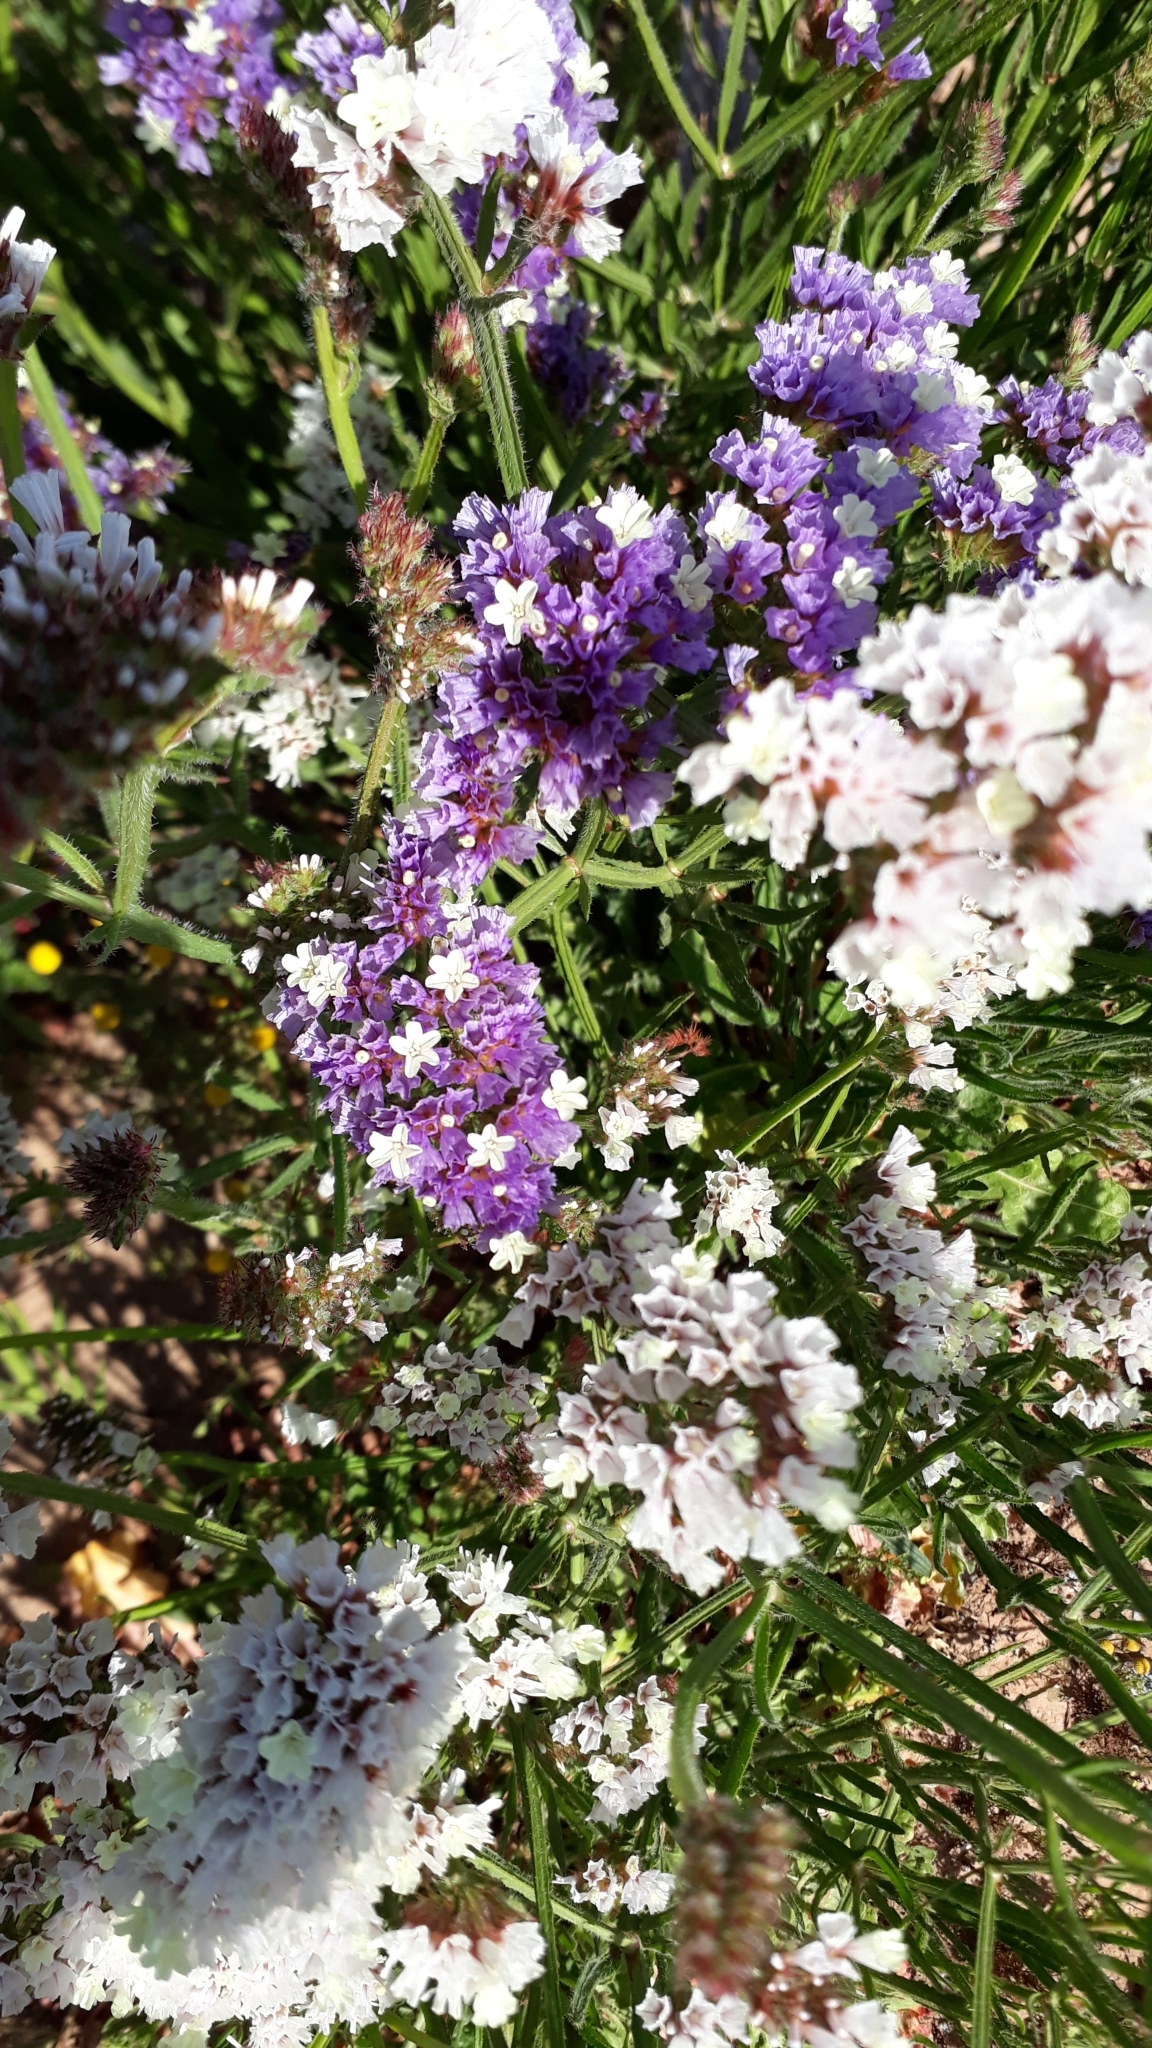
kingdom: Plantae
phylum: Tracheophyta
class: Magnoliopsida
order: Caryophyllales
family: Plumbaginaceae
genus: Limonium
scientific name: Limonium sinuatum
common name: Statice
